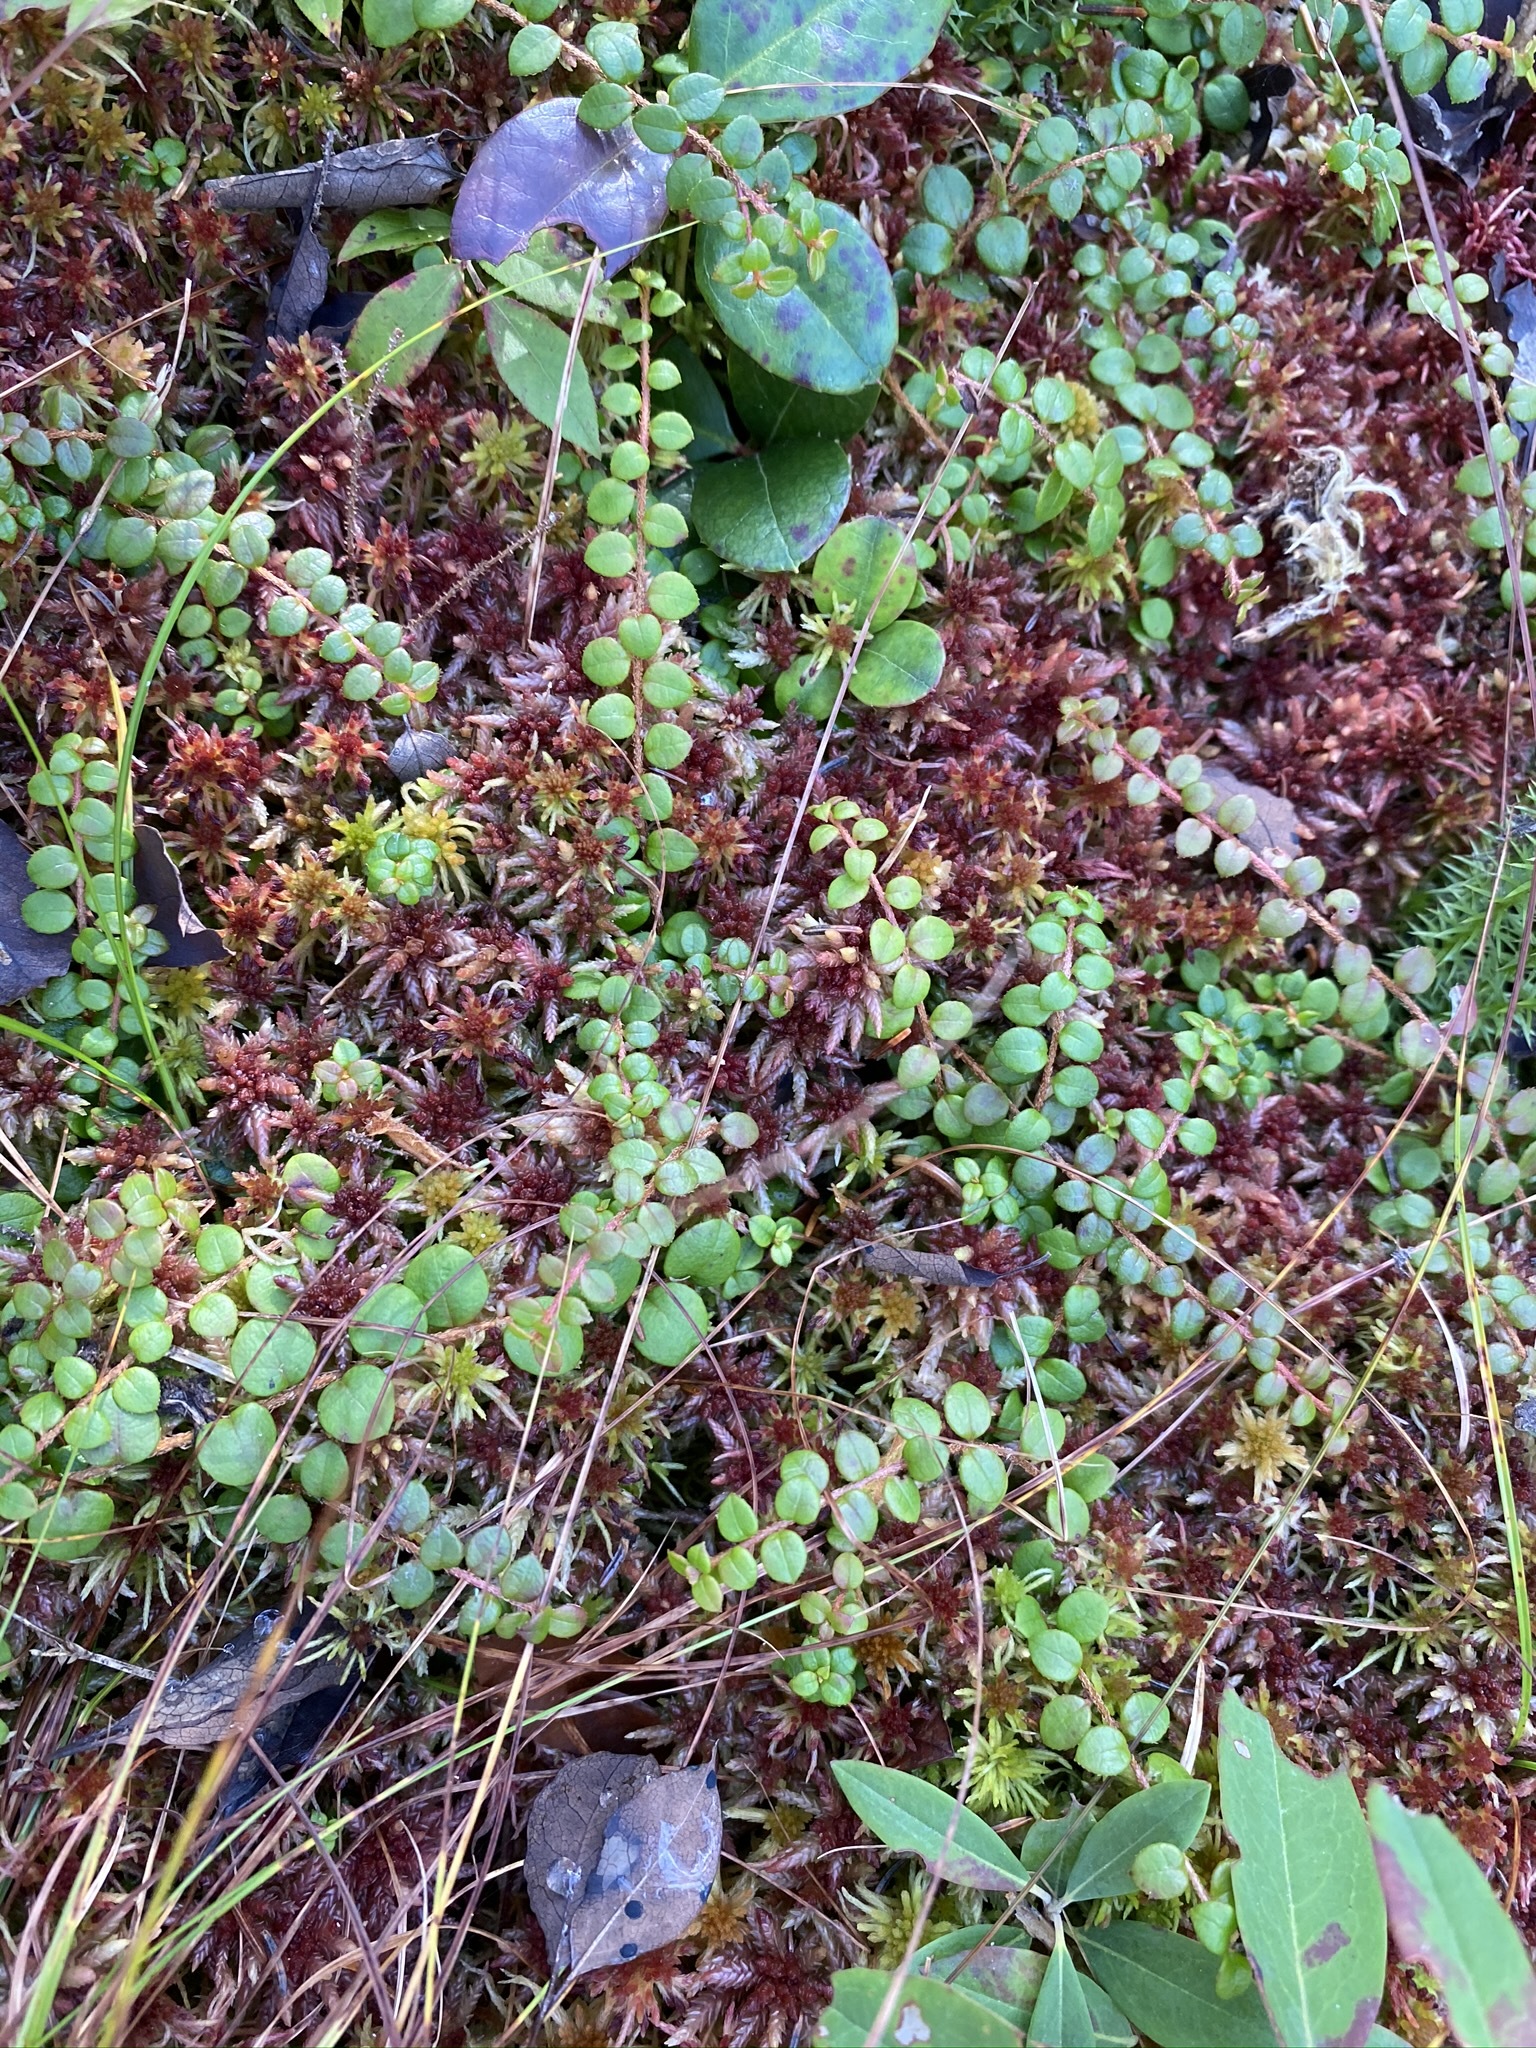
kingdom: Plantae
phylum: Tracheophyta
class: Magnoliopsida
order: Ericales
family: Ericaceae
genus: Gaultheria
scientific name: Gaultheria hispidula
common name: Cancer wintergreen
